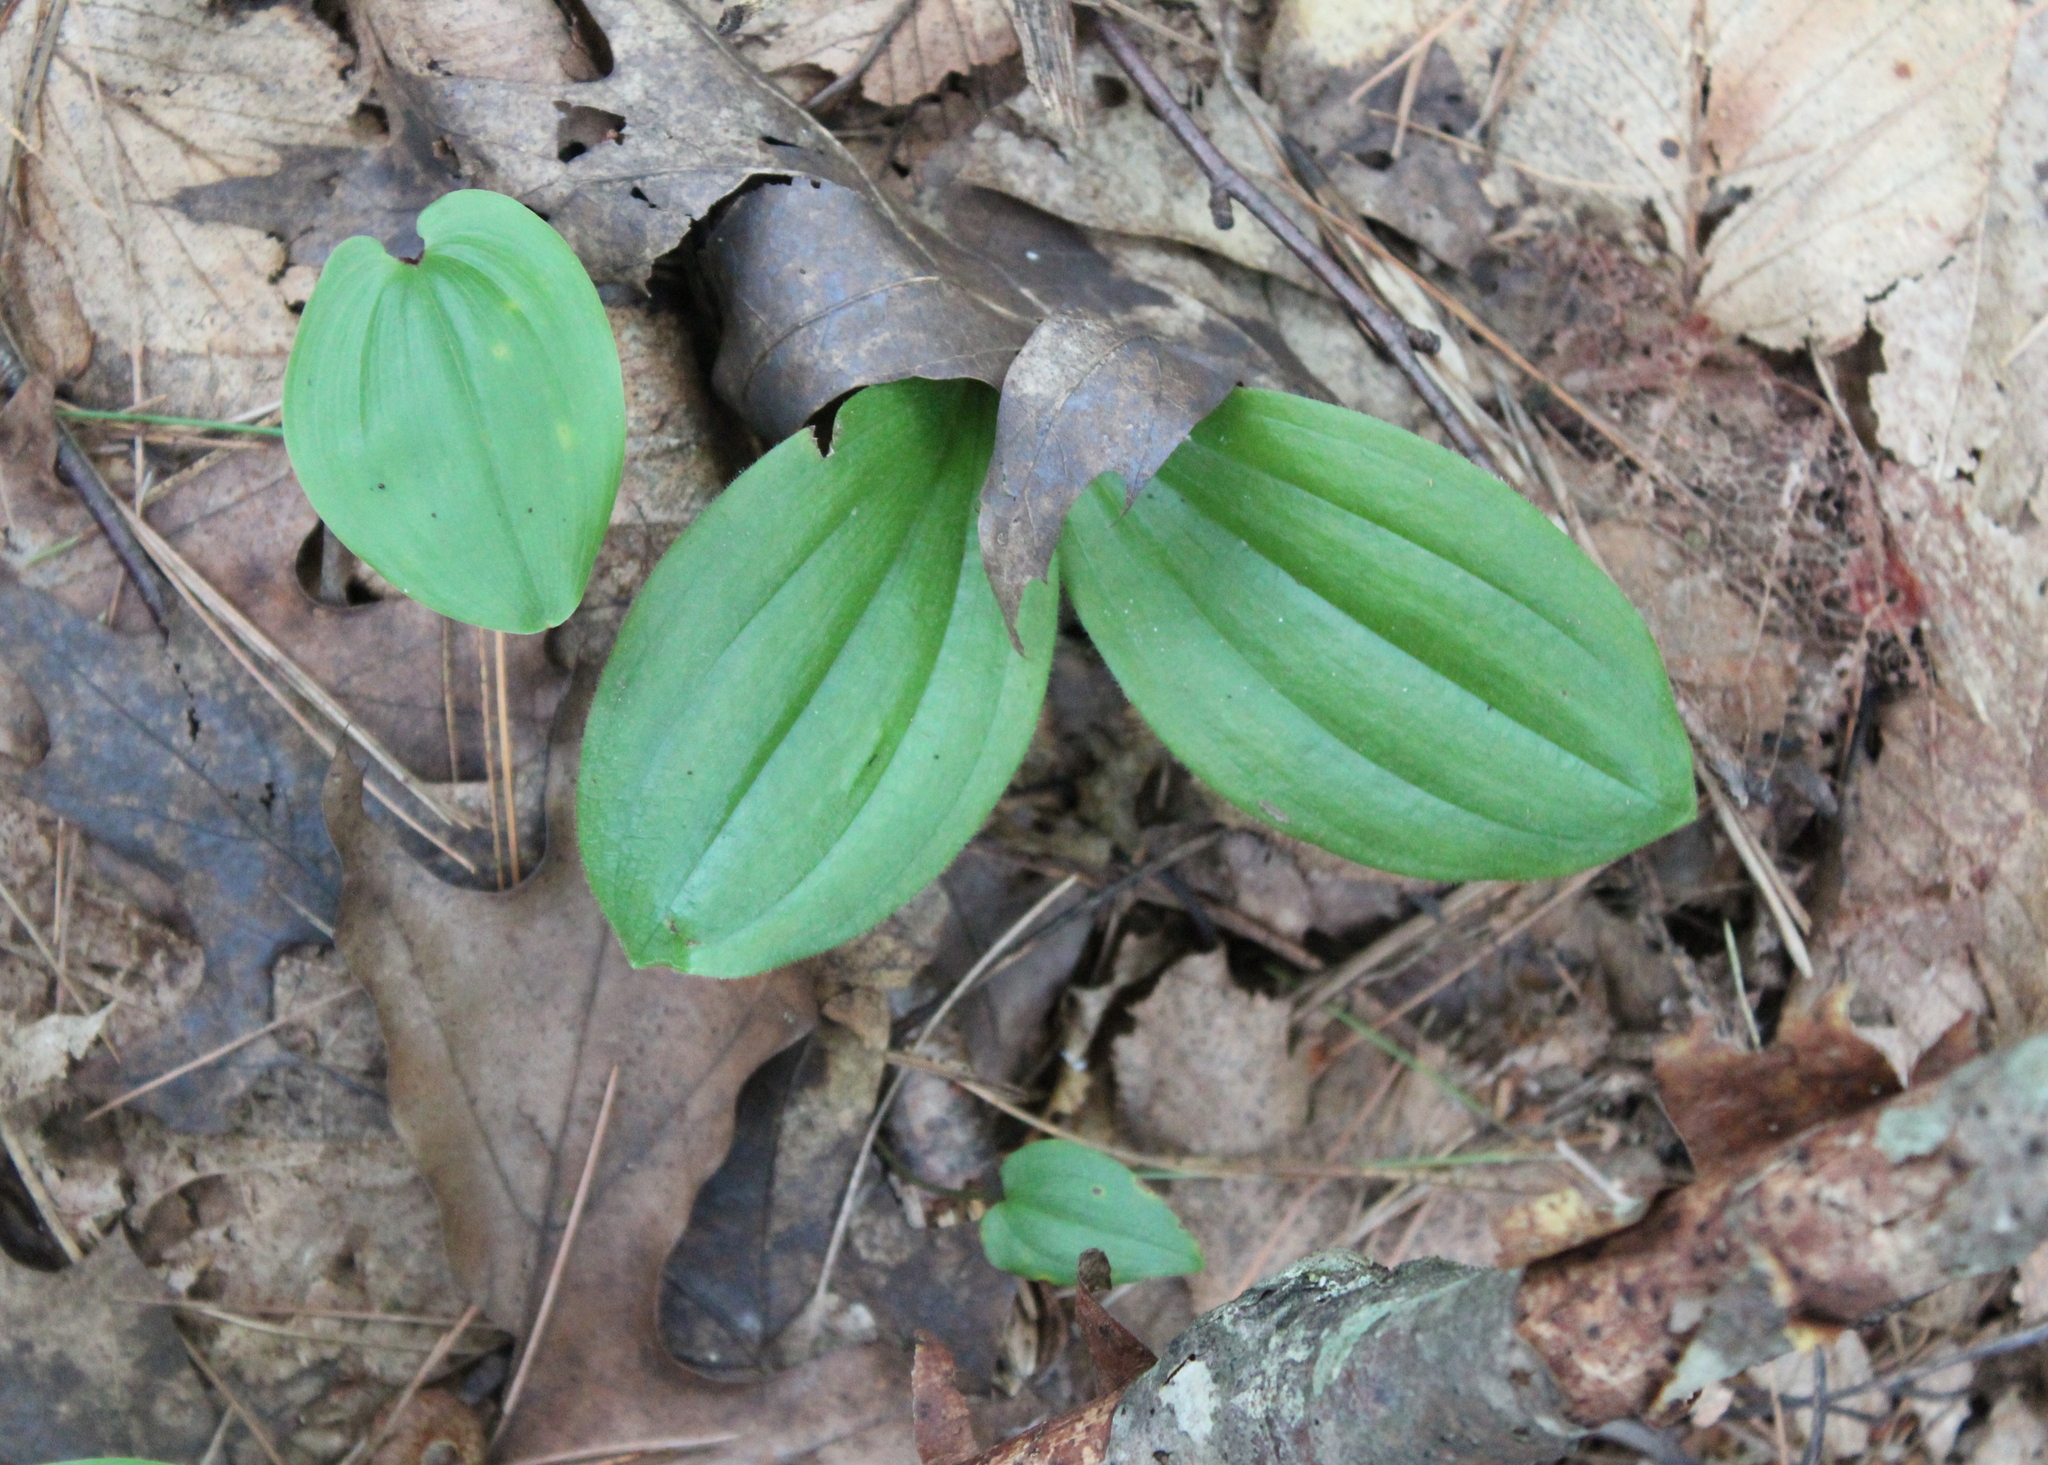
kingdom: Plantae
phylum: Tracheophyta
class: Liliopsida
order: Asparagales
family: Orchidaceae
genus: Cypripedium
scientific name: Cypripedium acaule
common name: Pink lady's-slipper
